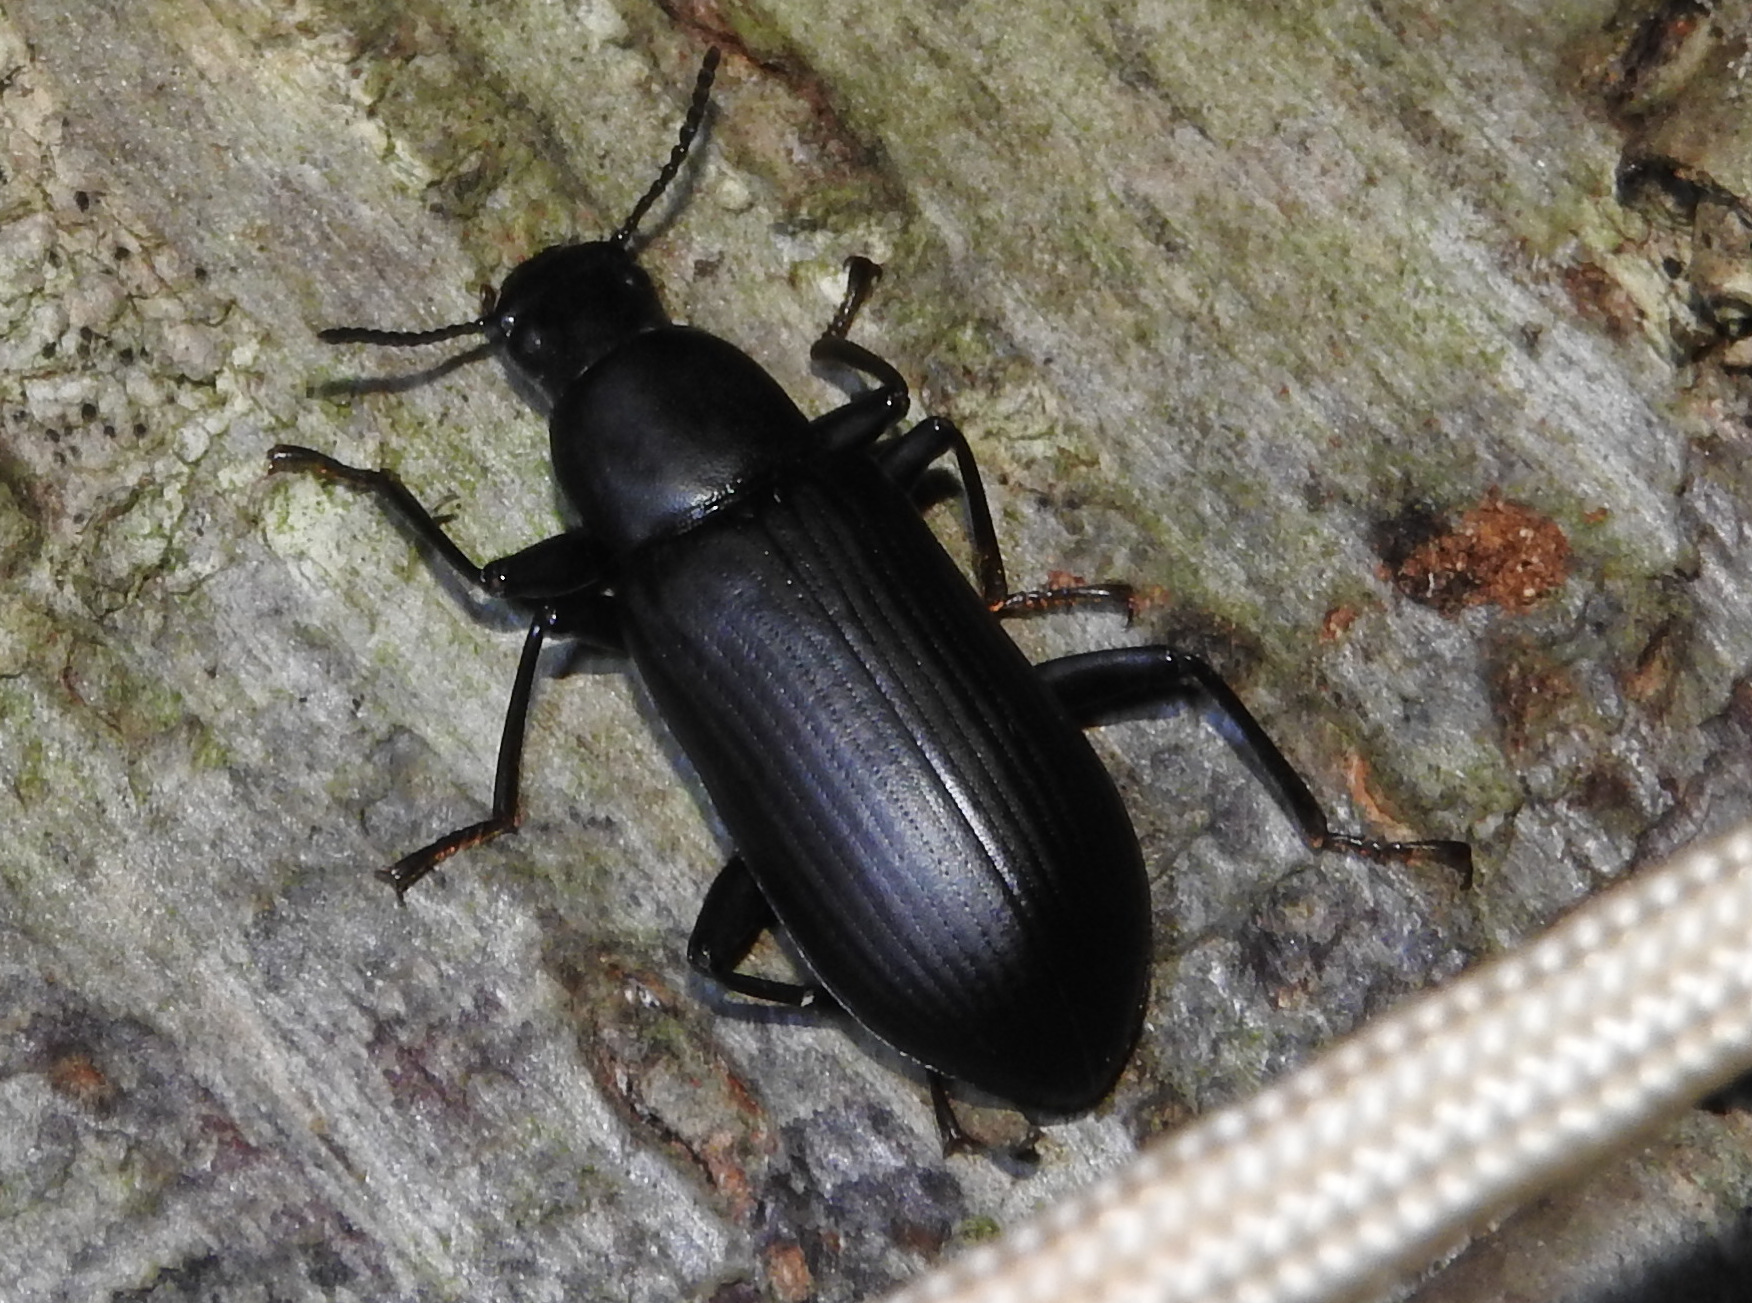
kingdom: Animalia
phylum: Arthropoda
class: Insecta
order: Coleoptera
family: Tenebrionidae
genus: Alobates
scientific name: Alobates pensylvanicus
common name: False mealworm beetle
